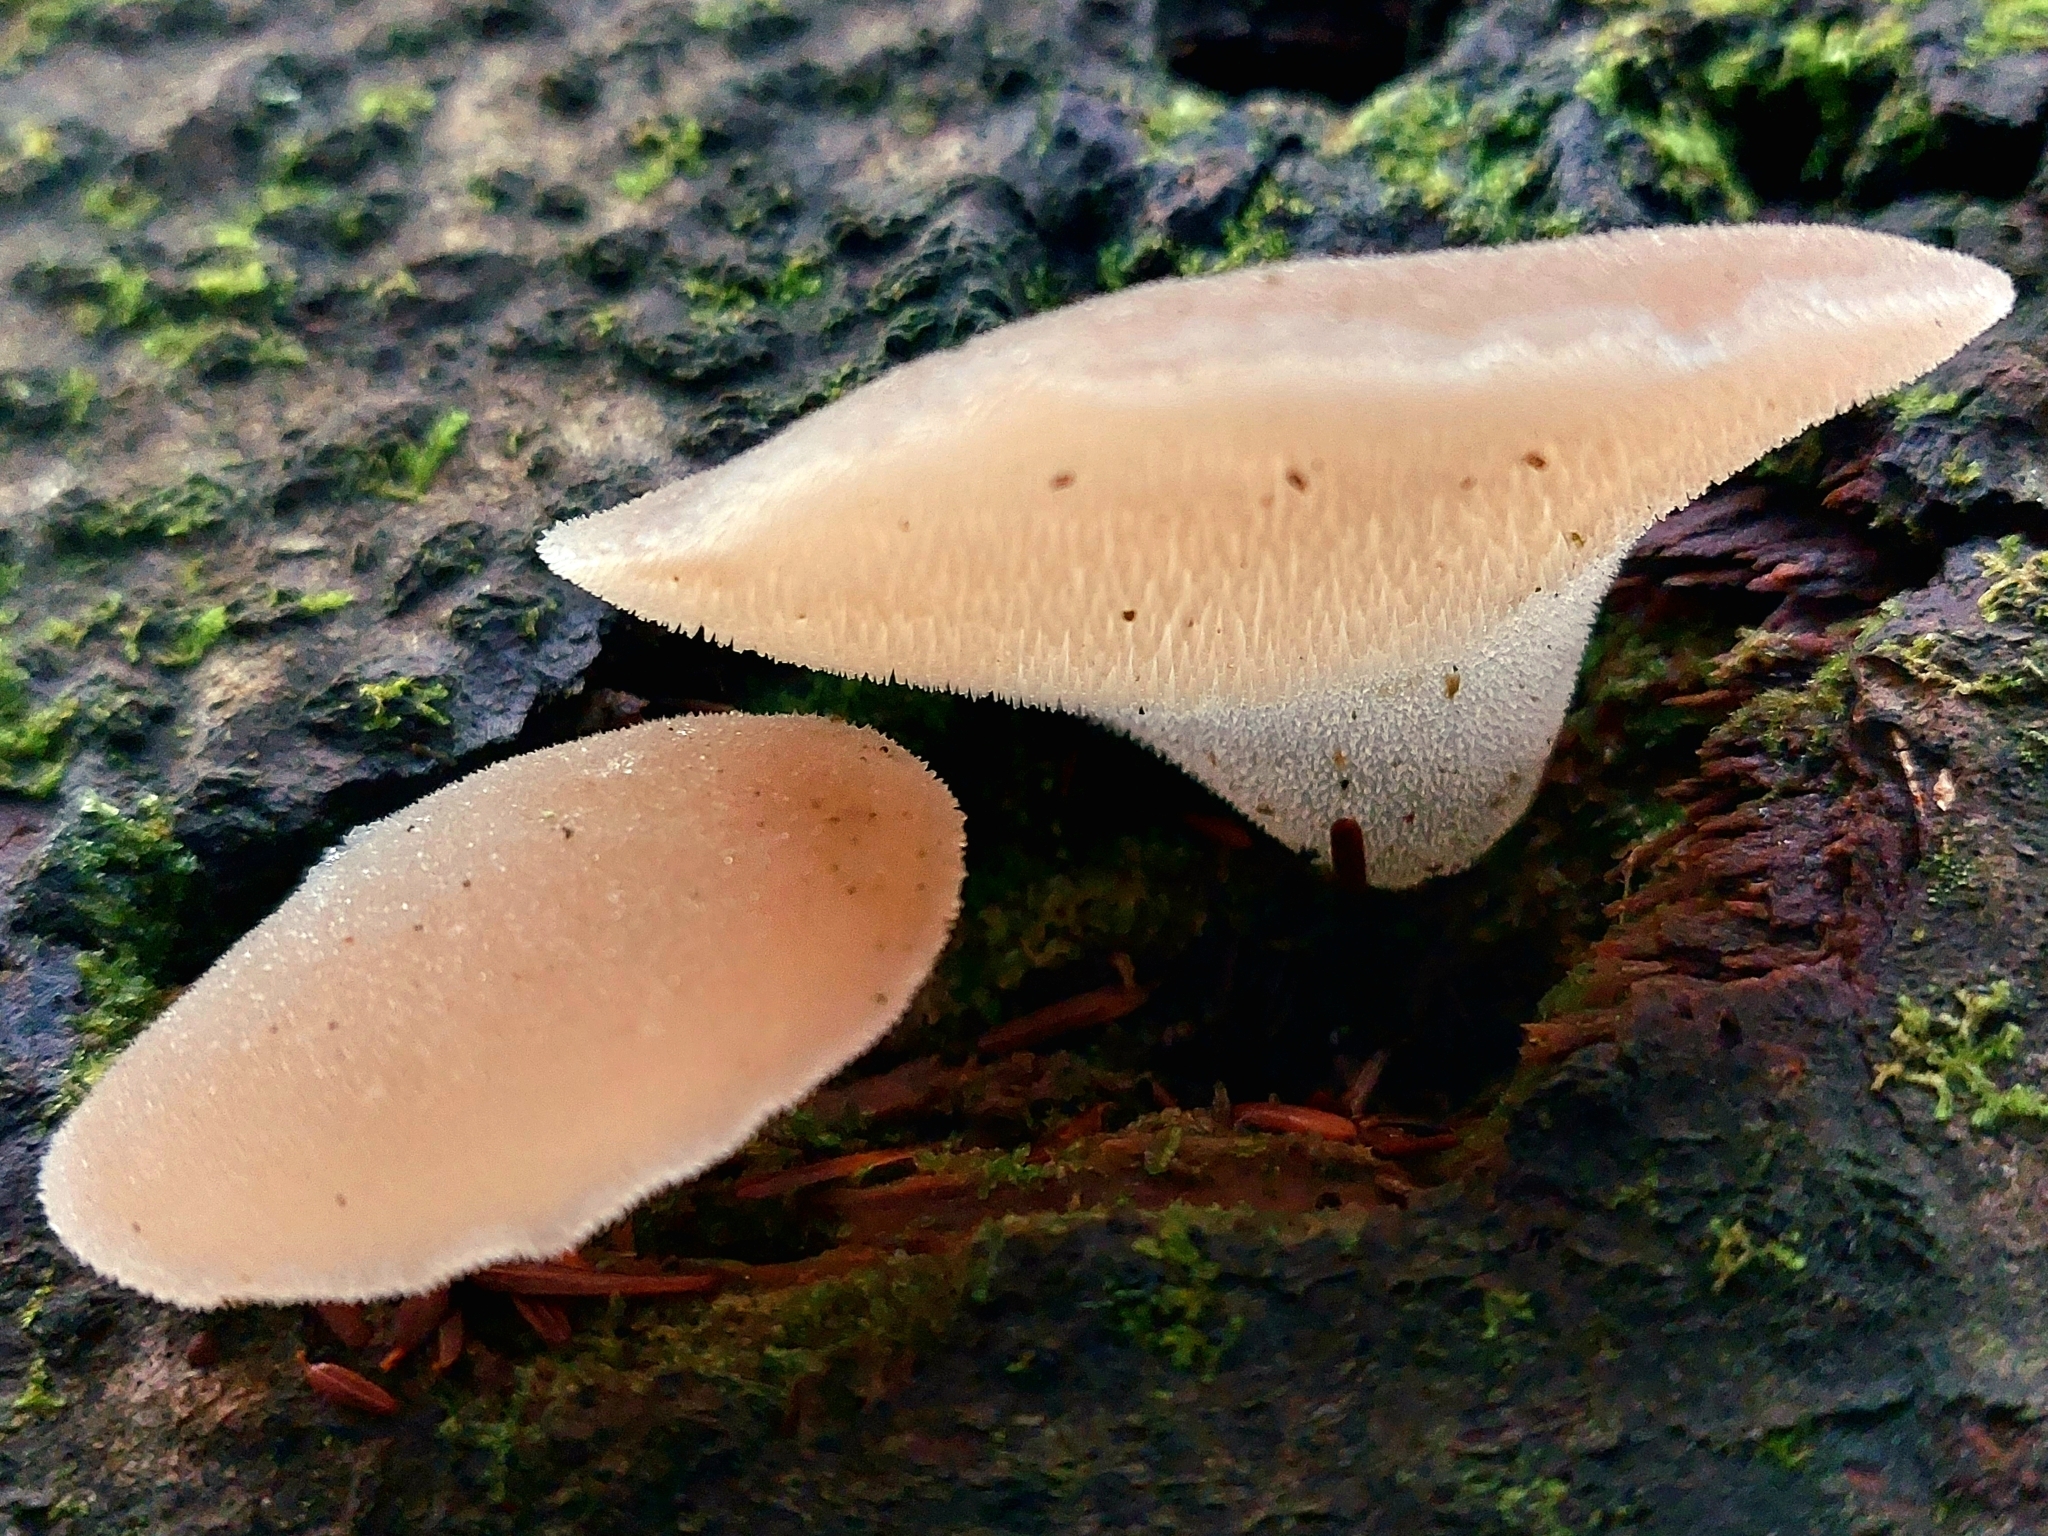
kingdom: Fungi
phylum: Basidiomycota
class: Agaricomycetes
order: Auriculariales
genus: Pseudohydnum
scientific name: Pseudohydnum gelatinosum
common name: Jelly tongue
